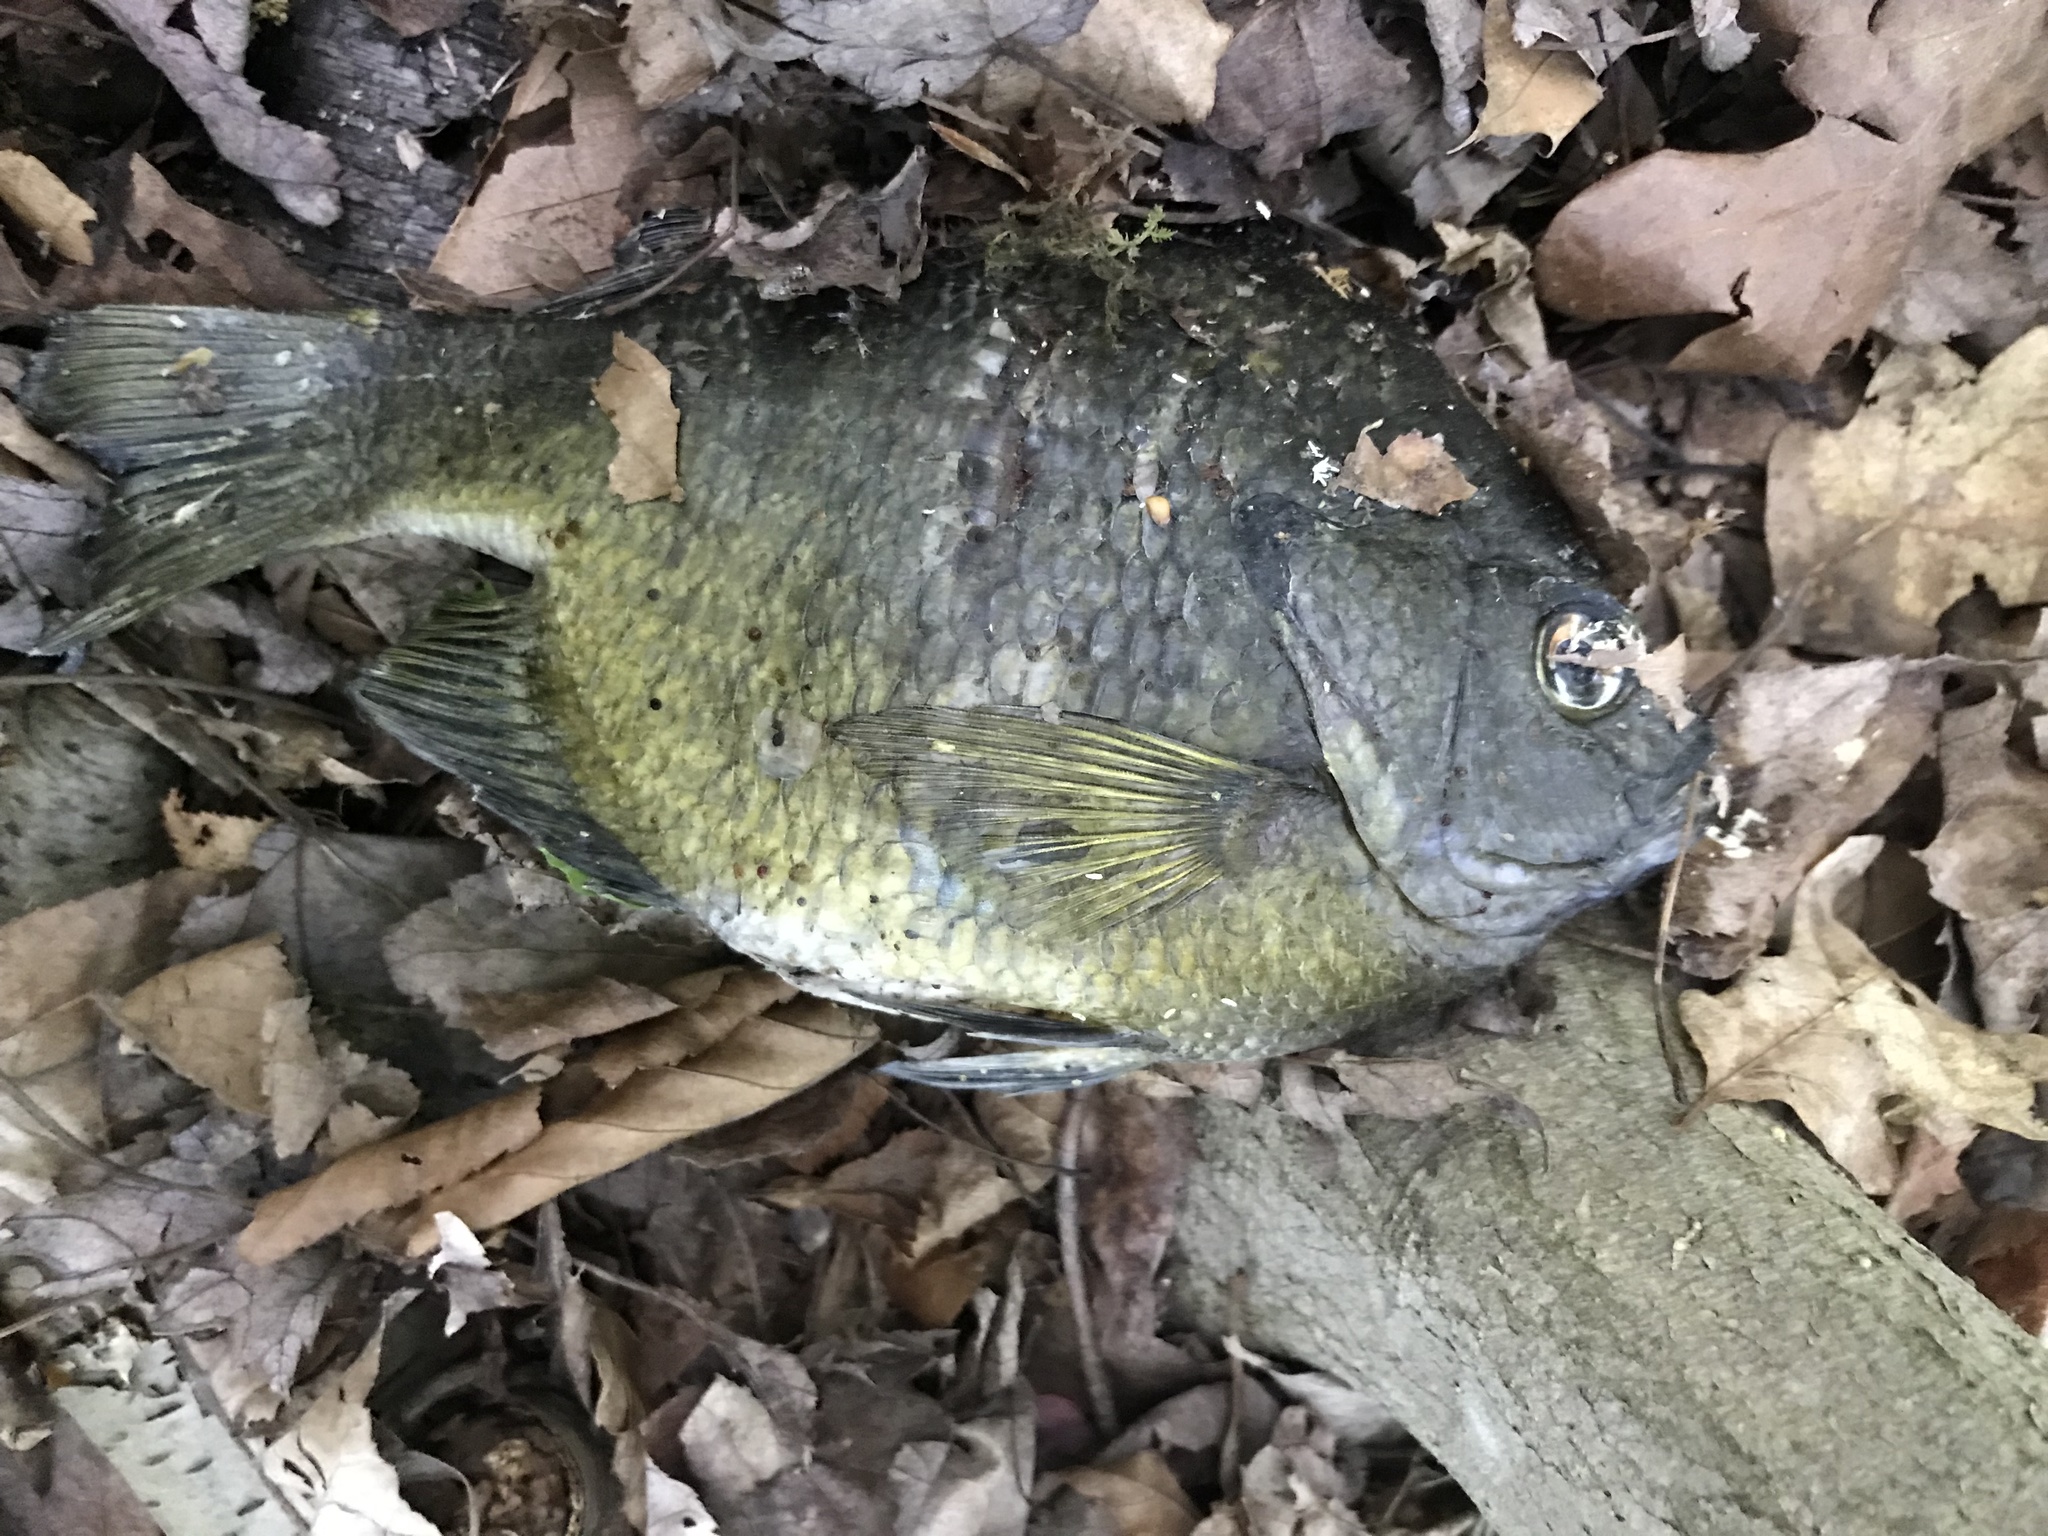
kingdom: Animalia
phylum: Chordata
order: Perciformes
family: Centrarchidae
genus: Lepomis
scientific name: Lepomis macrochirus
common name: Bluegill
